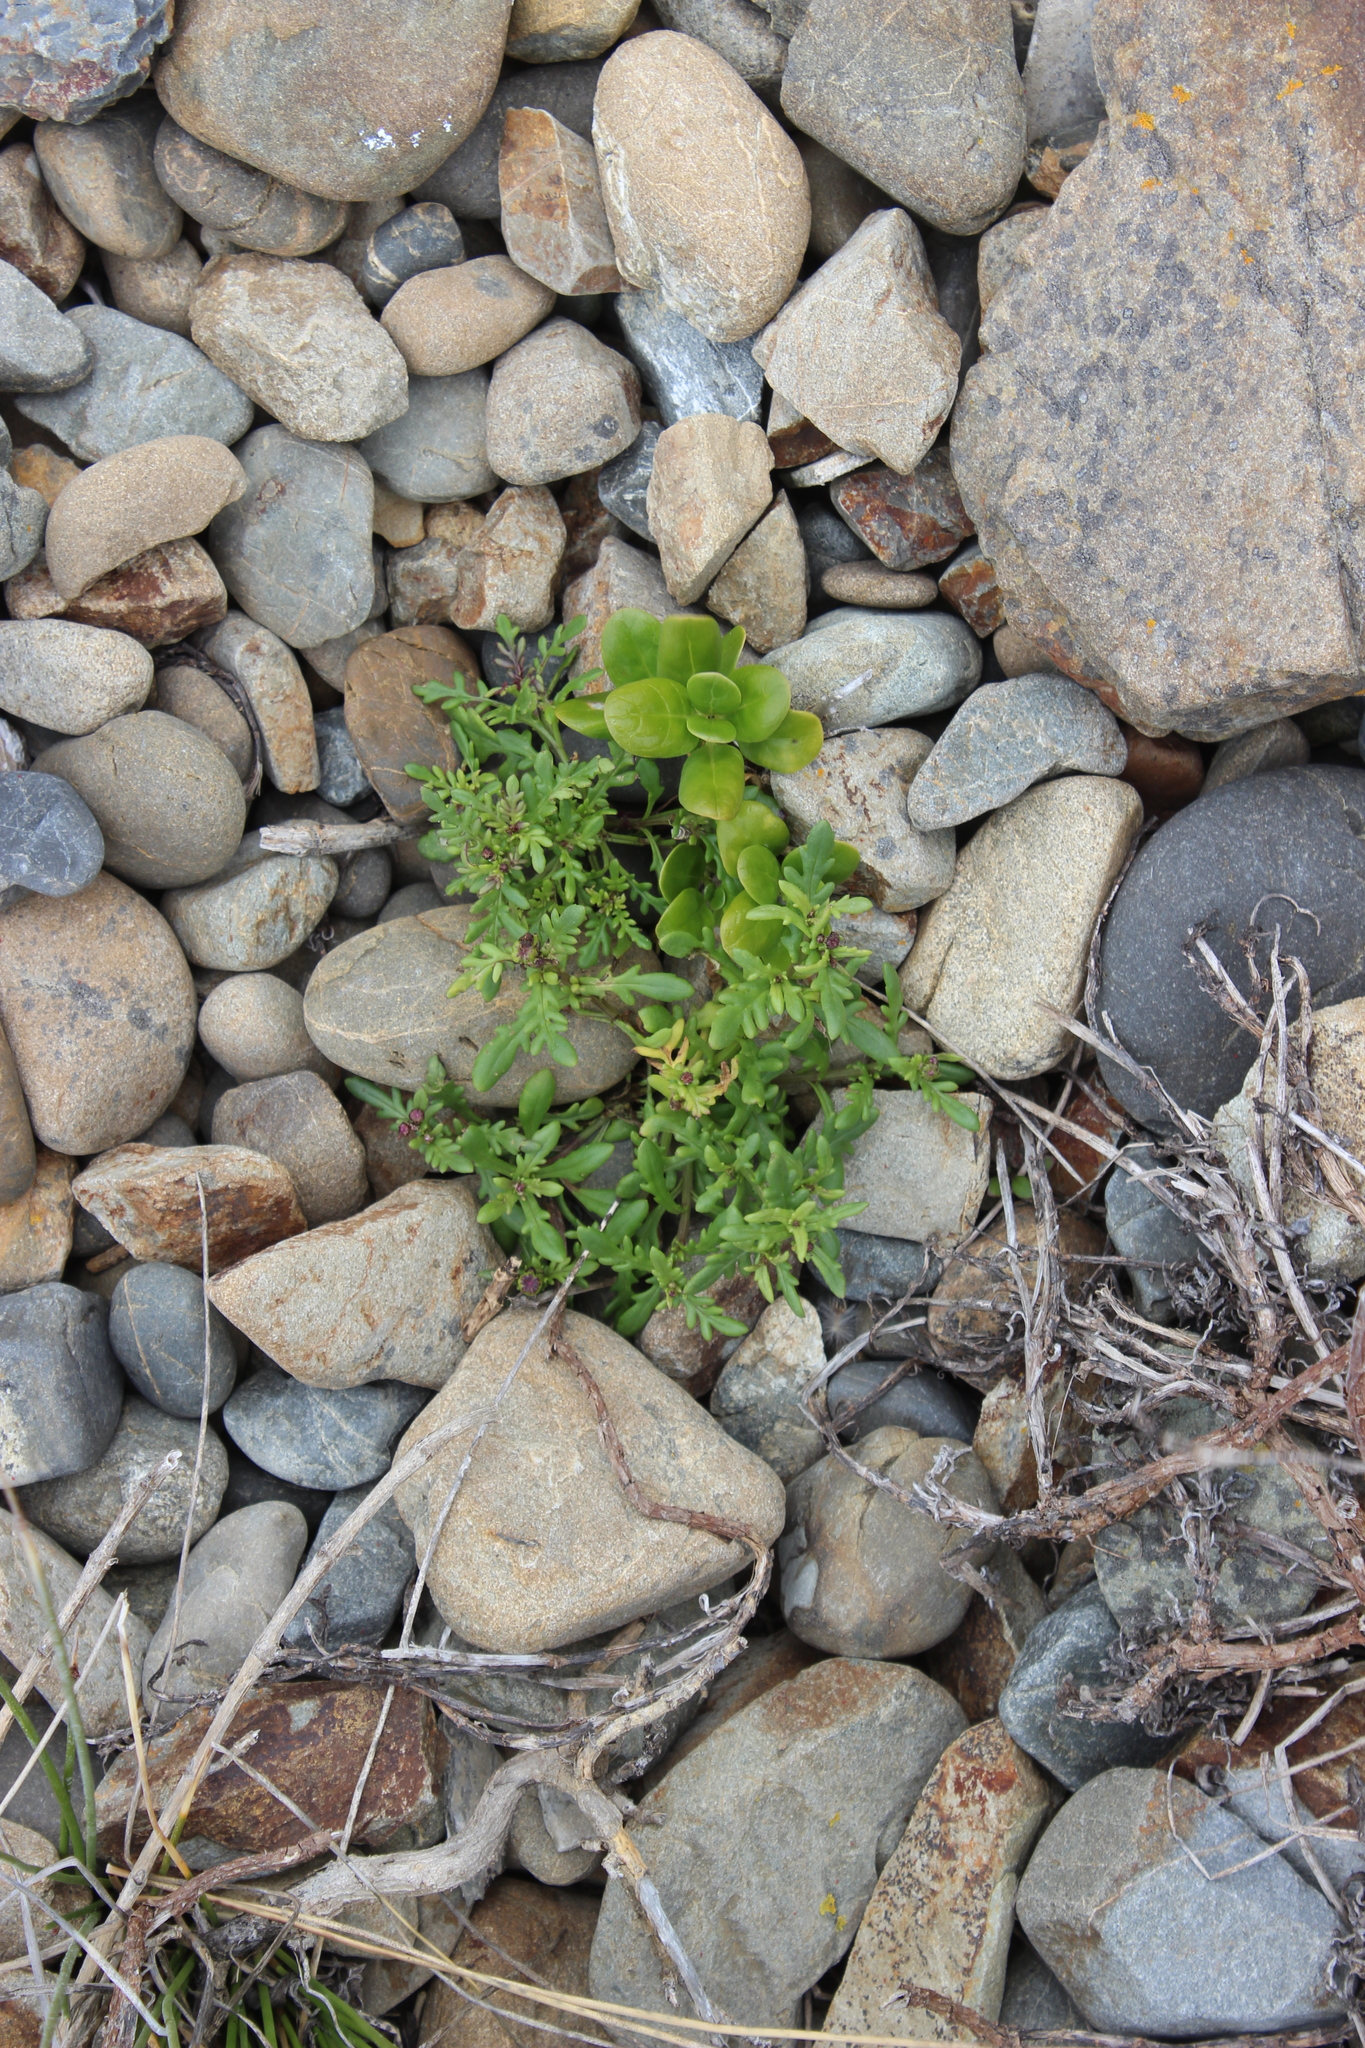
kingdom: Plantae
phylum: Tracheophyta
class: Magnoliopsida
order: Asterales
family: Asteraceae
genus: Senecio
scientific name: Senecio lautus
